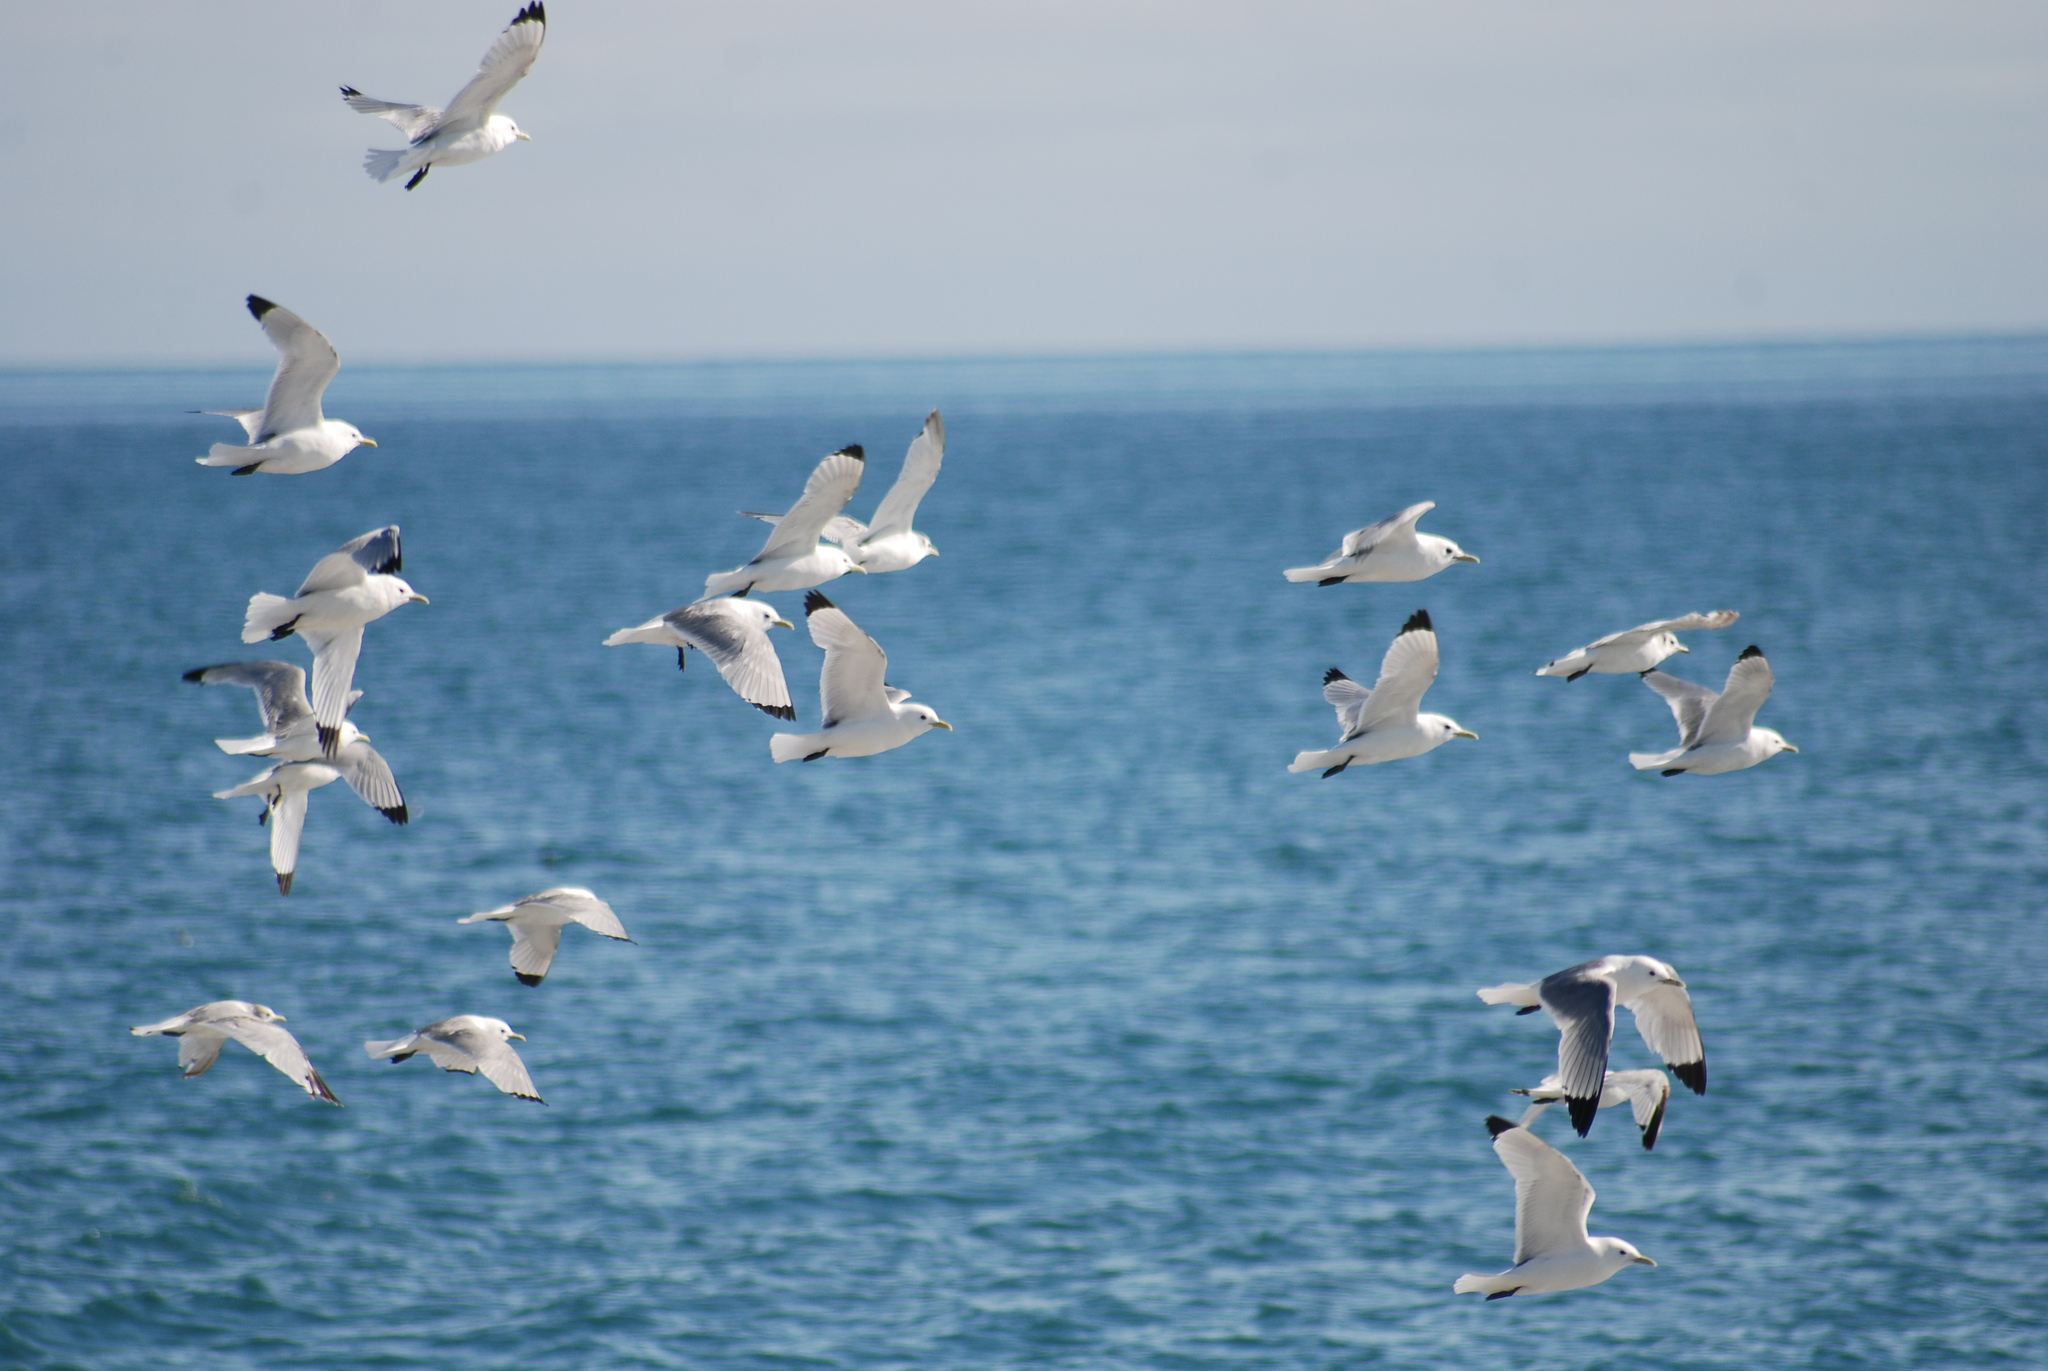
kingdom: Animalia
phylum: Chordata
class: Aves
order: Charadriiformes
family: Laridae
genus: Rissa
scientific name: Rissa tridactyla
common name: Black-legged kittiwake
